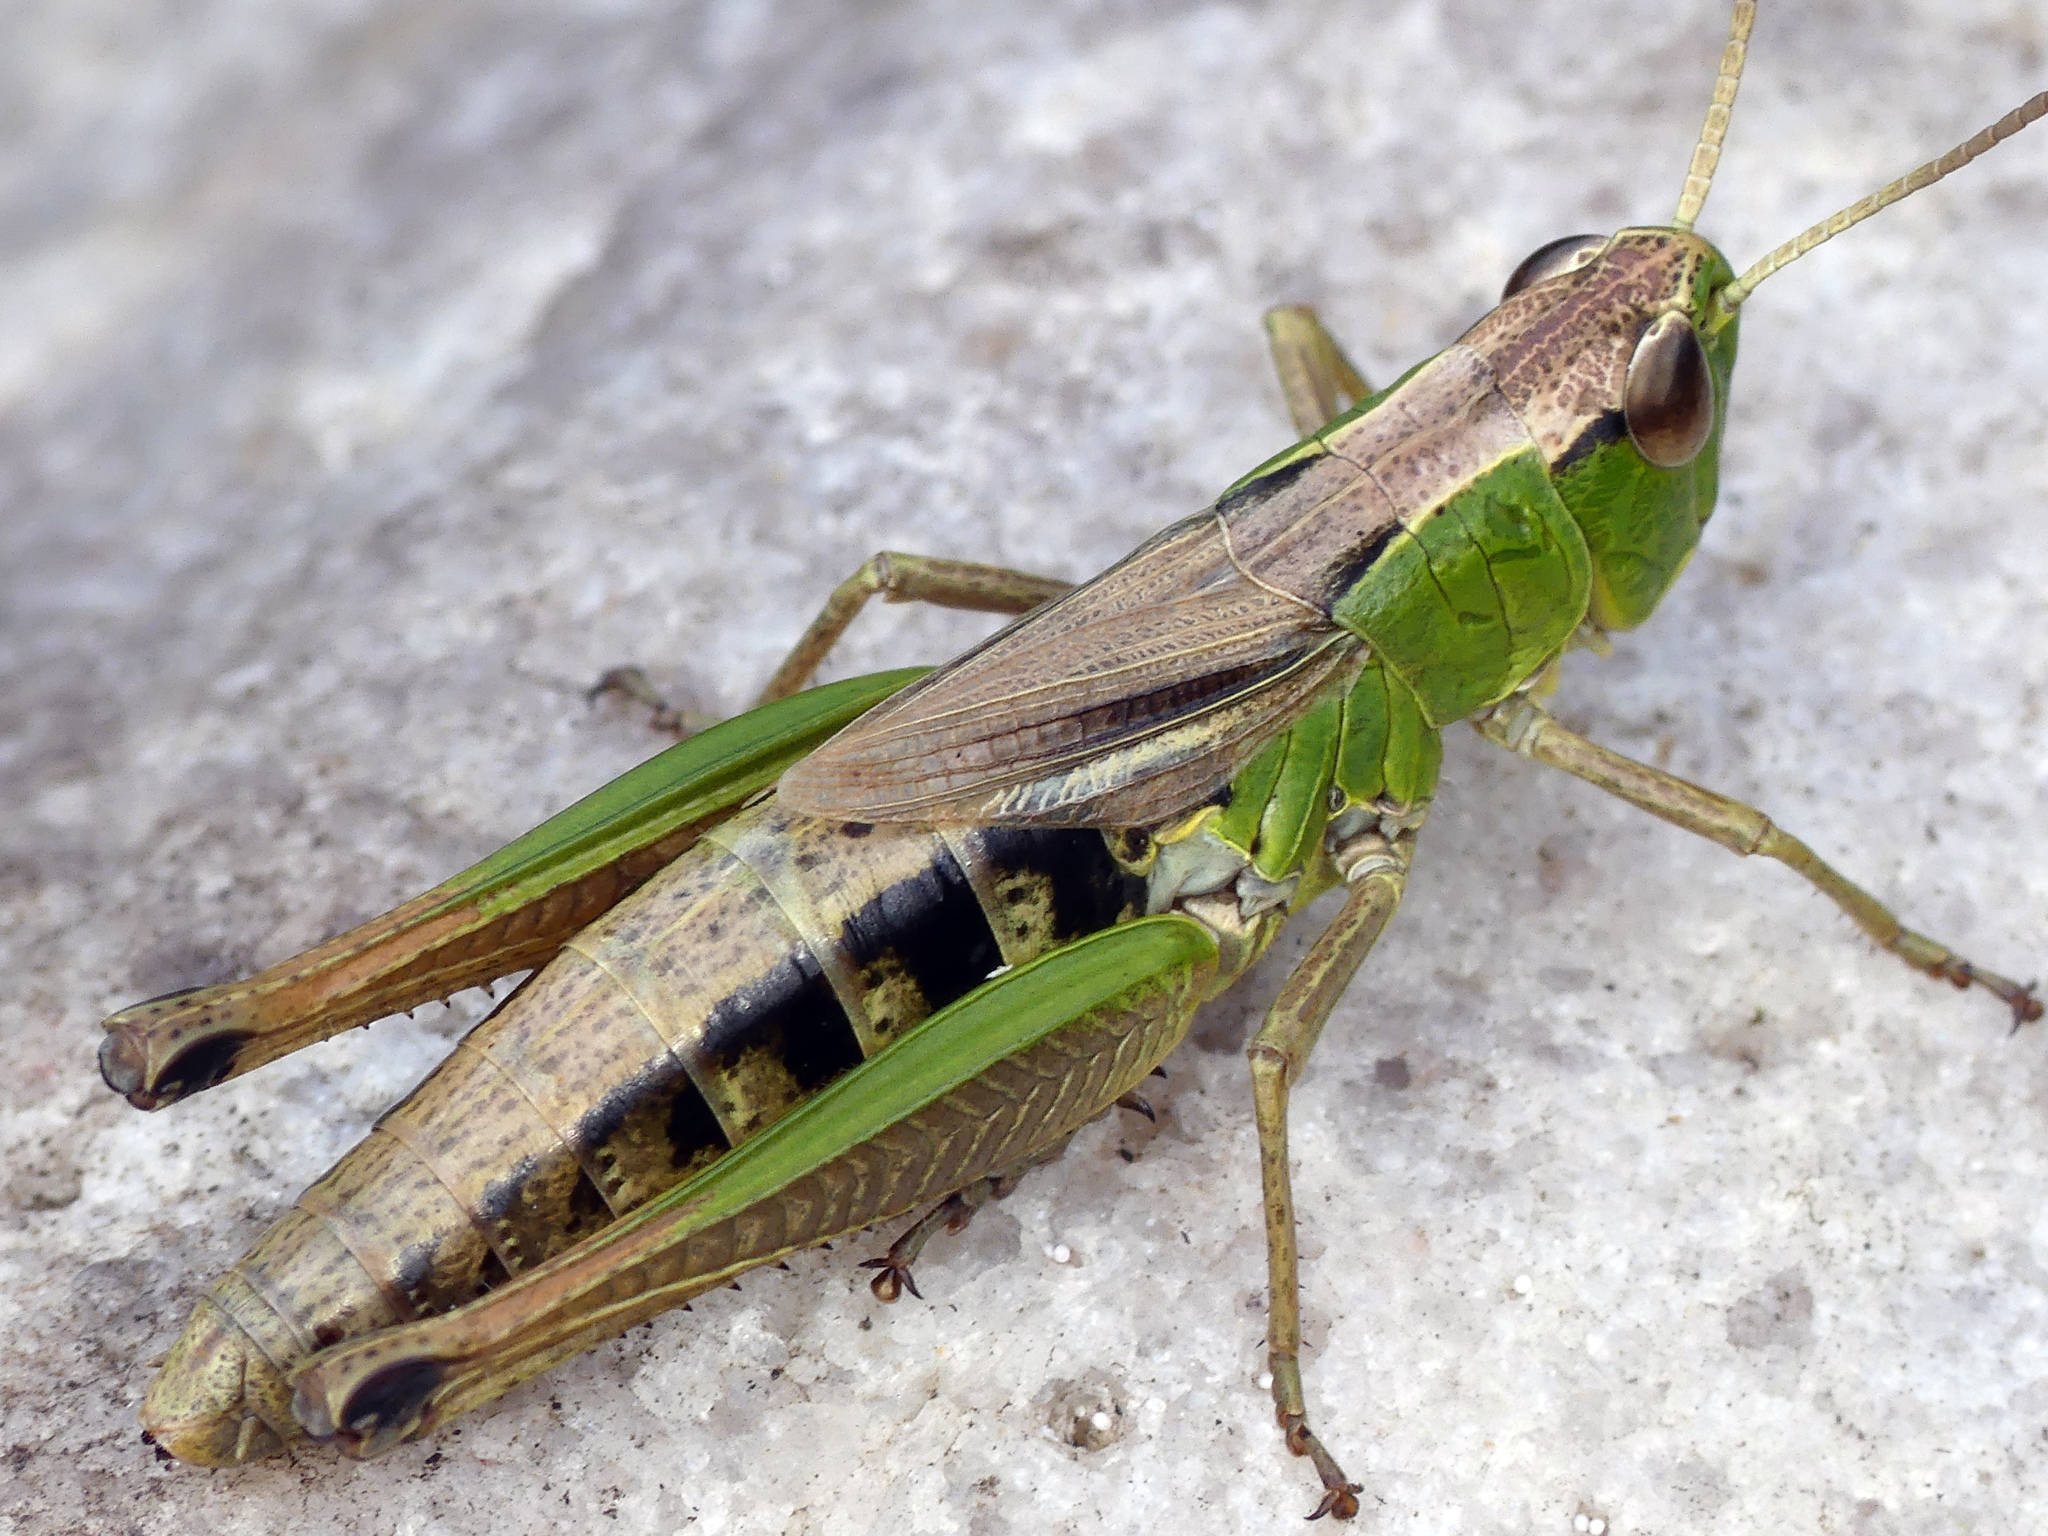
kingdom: Animalia
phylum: Arthropoda
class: Insecta
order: Orthoptera
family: Acrididae
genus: Pseudochorthippus
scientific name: Pseudochorthippus parallelus
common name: Meadow grasshopper
